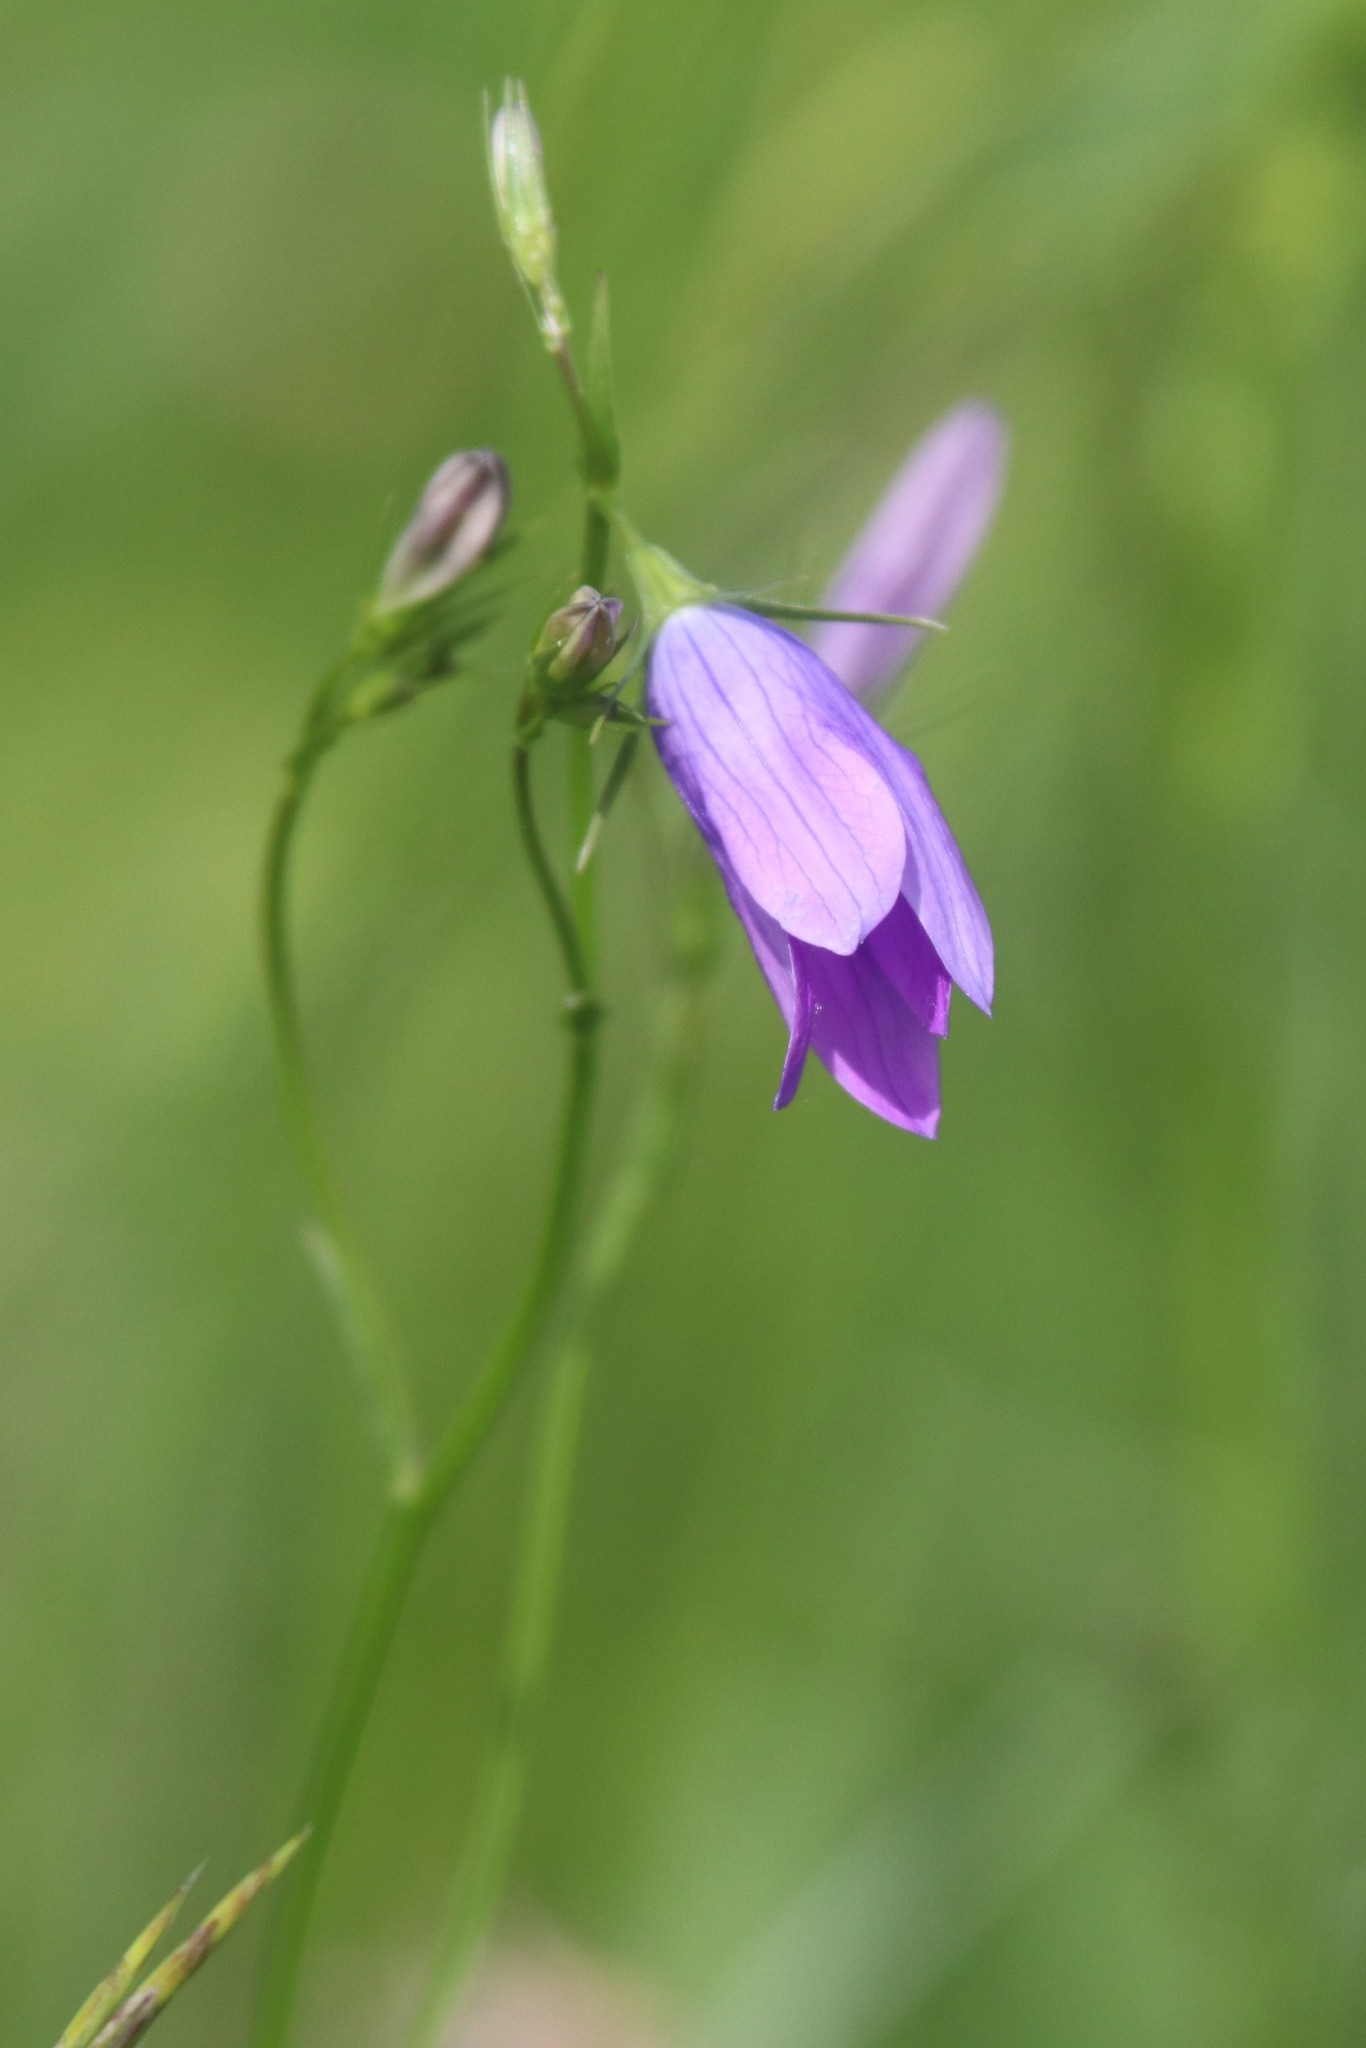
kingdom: Plantae
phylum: Tracheophyta
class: Magnoliopsida
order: Asterales
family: Campanulaceae
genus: Campanula
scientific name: Campanula patula
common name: Spreading bellflower
